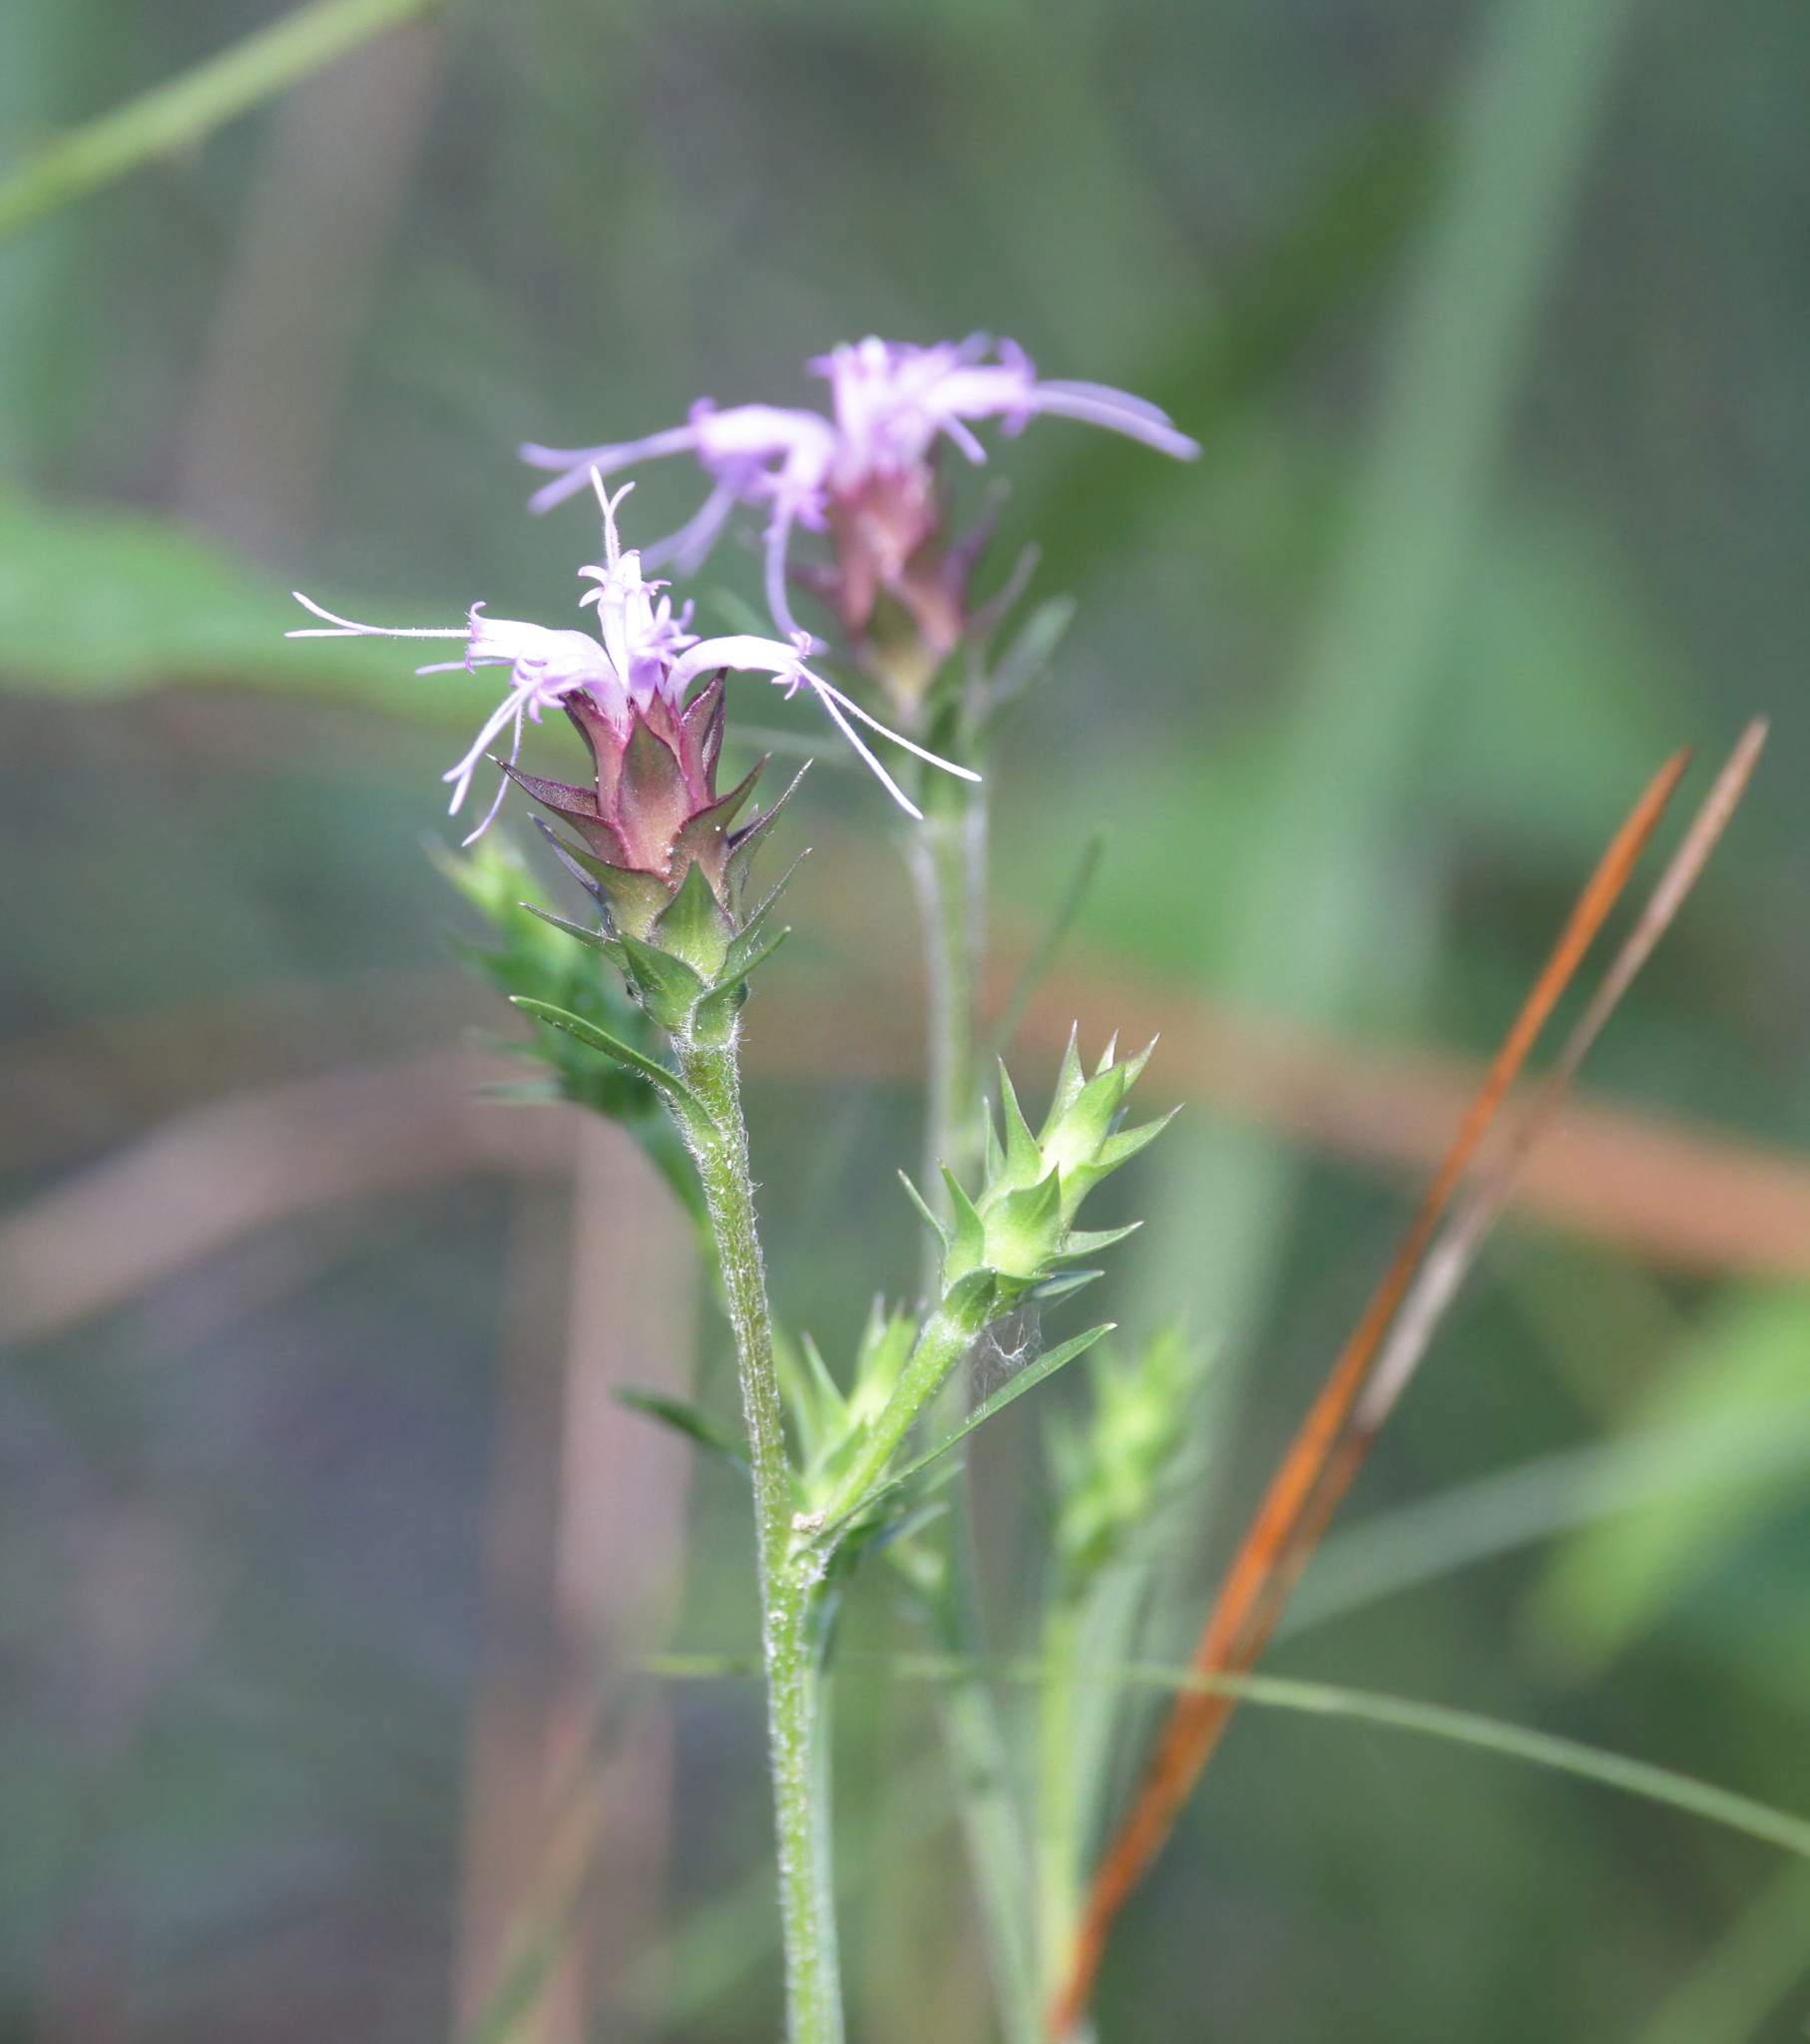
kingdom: Plantae
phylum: Tracheophyta
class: Magnoliopsida
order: Asterales
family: Asteraceae
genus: Liatris
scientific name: Liatris squarrosa
